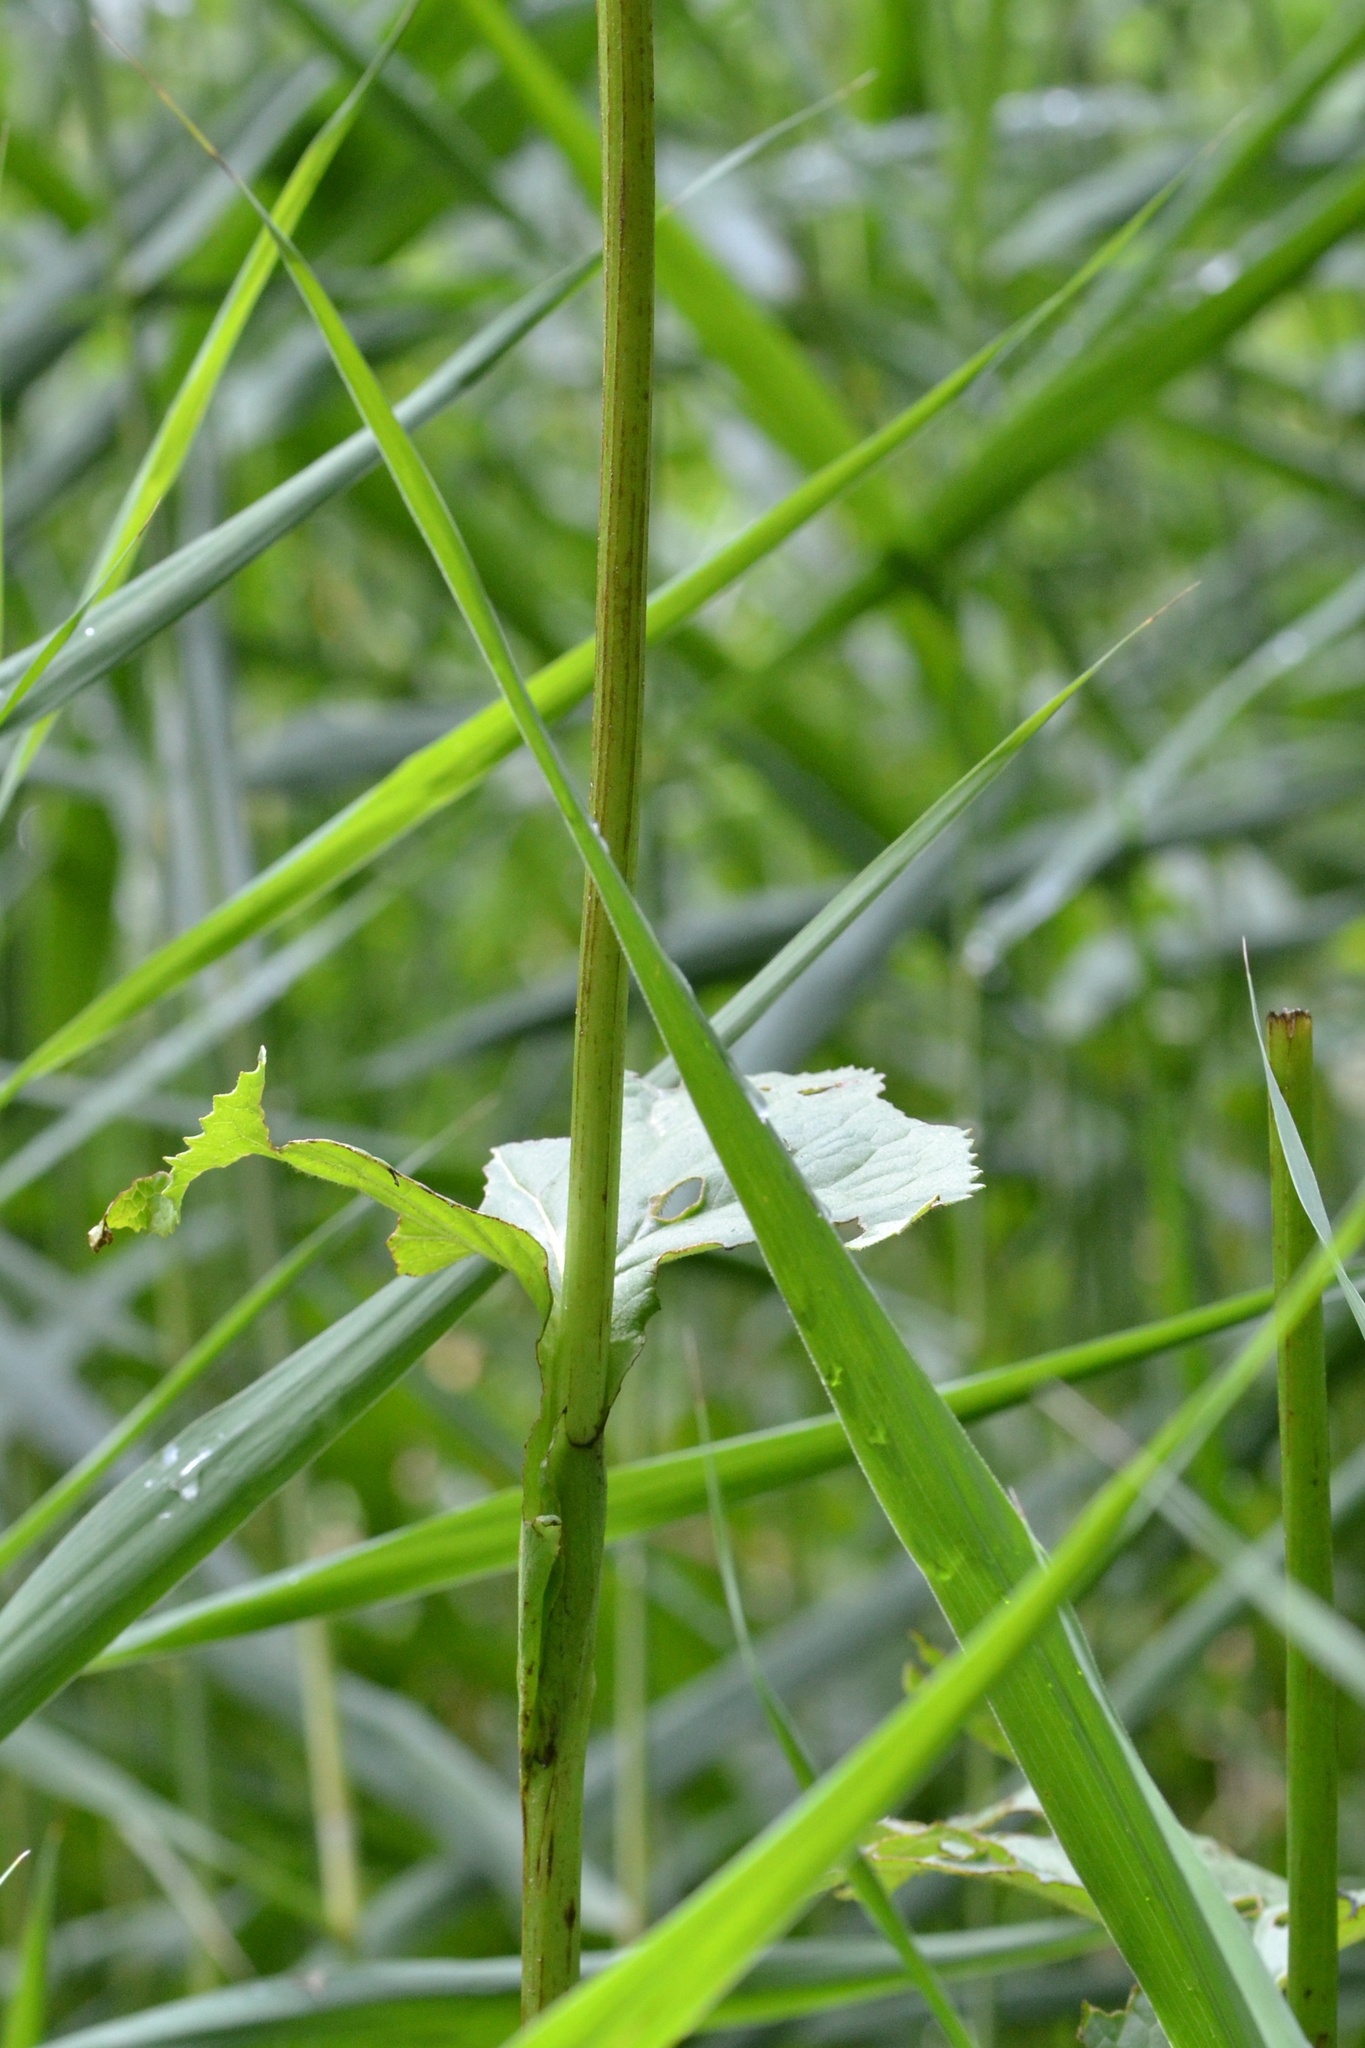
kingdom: Plantae
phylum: Tracheophyta
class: Magnoliopsida
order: Asterales
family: Asteraceae
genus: Ligularia
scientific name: Ligularia sibirica
